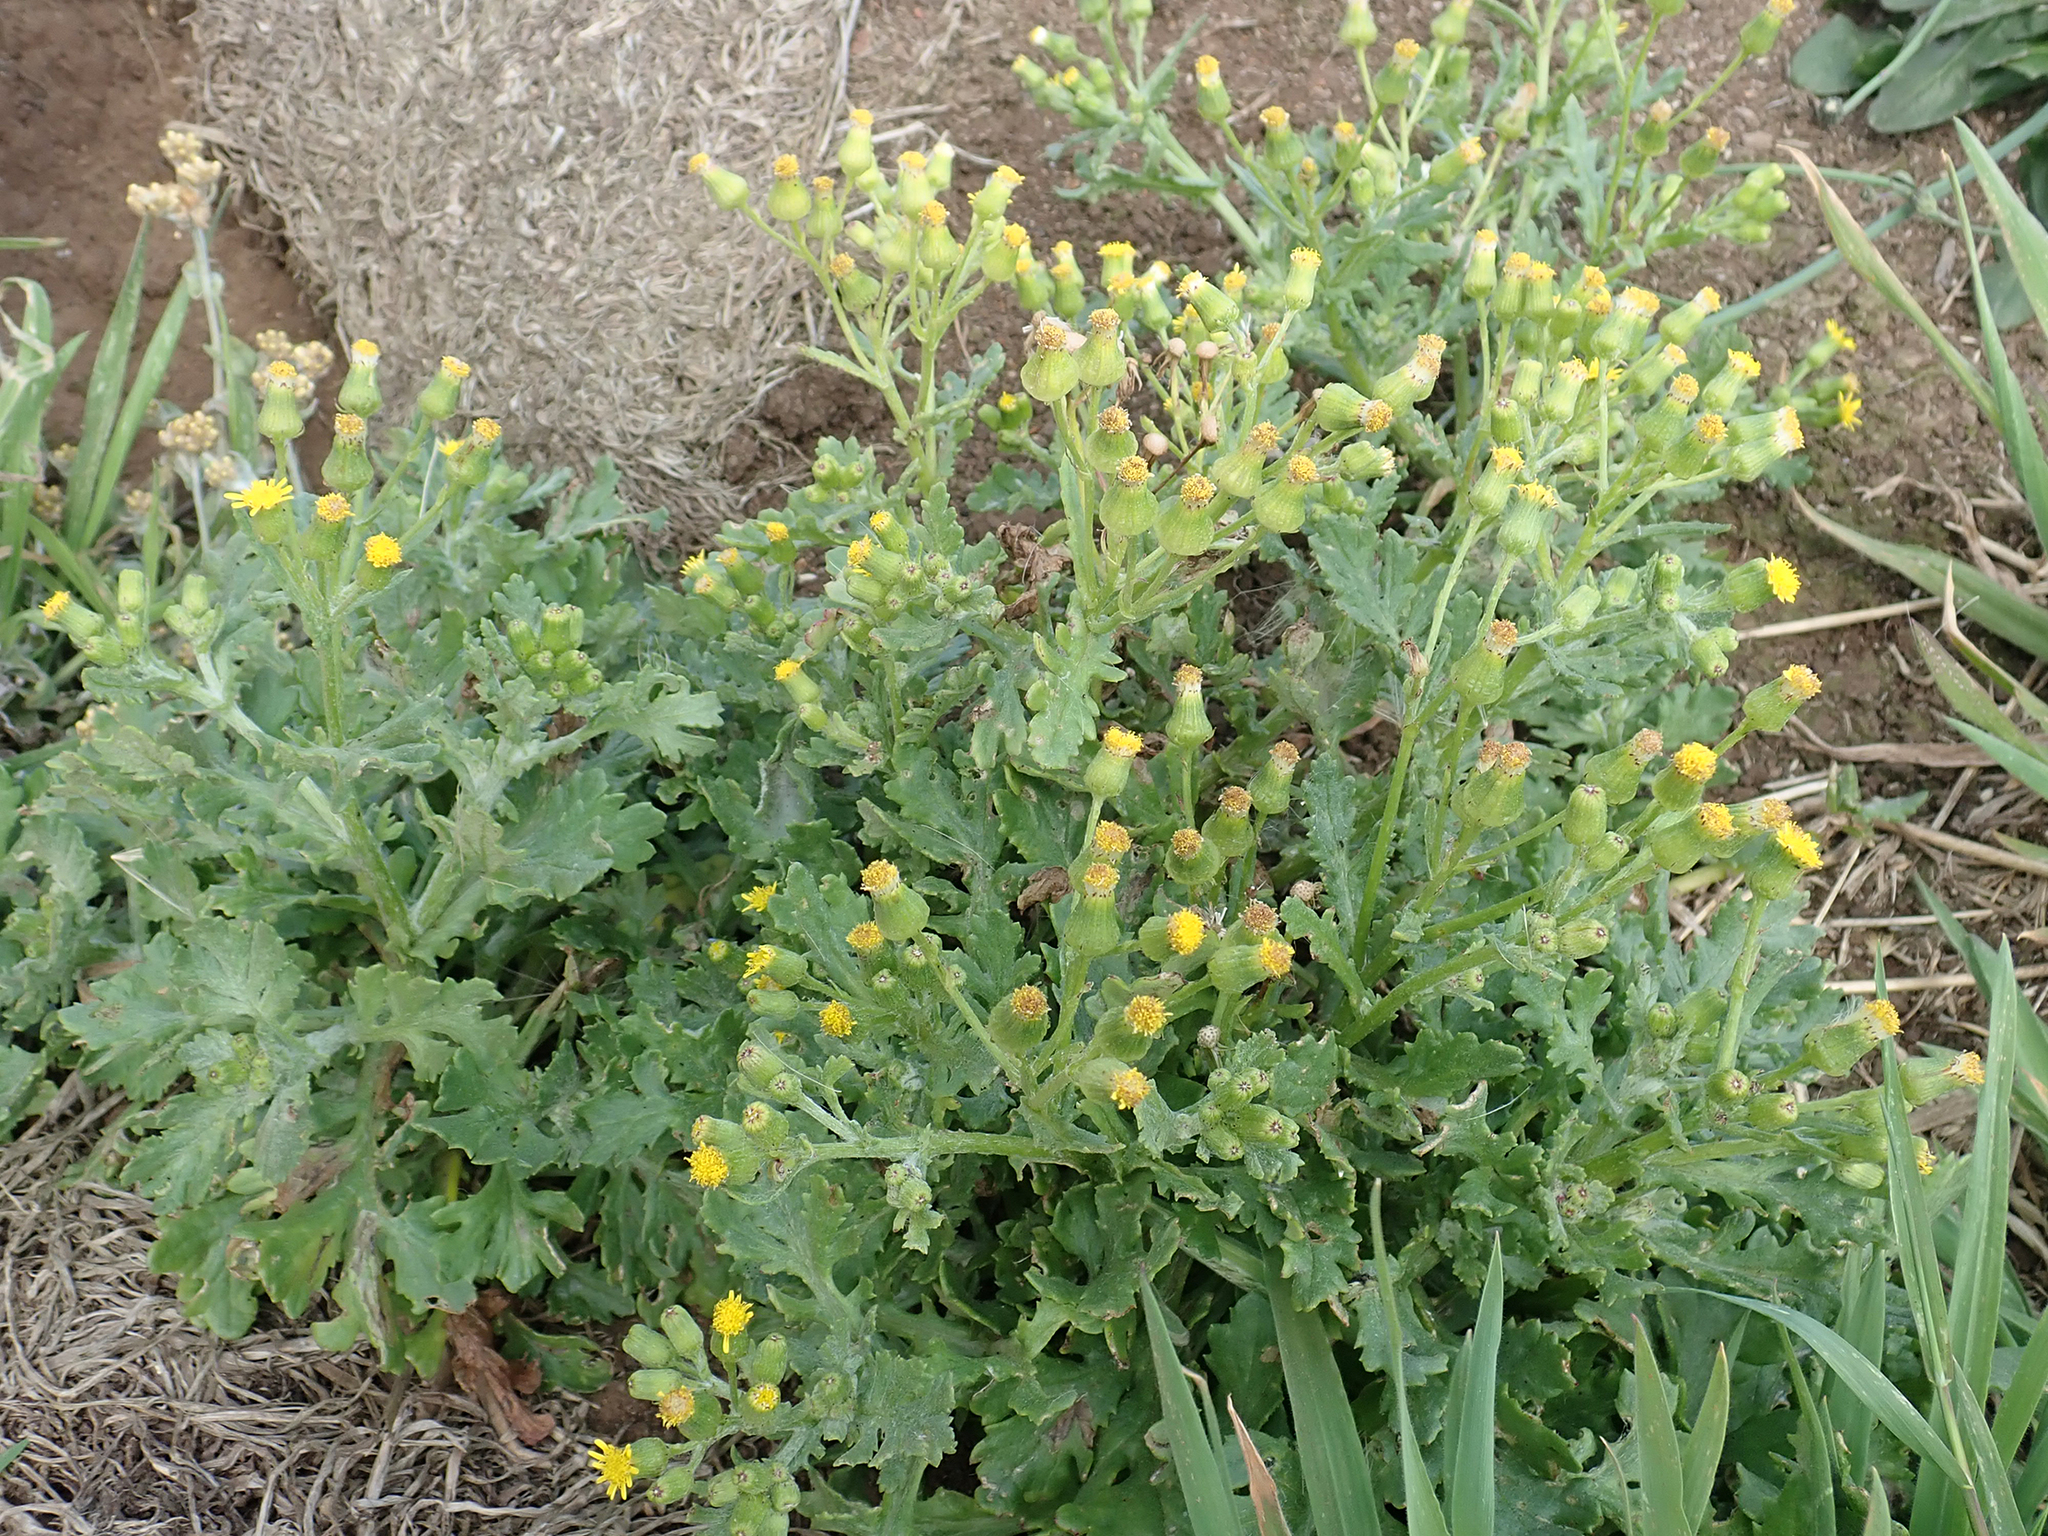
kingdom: Plantae
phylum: Tracheophyta
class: Magnoliopsida
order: Asterales
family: Asteraceae
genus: Senecio
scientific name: Senecio radiolatus
